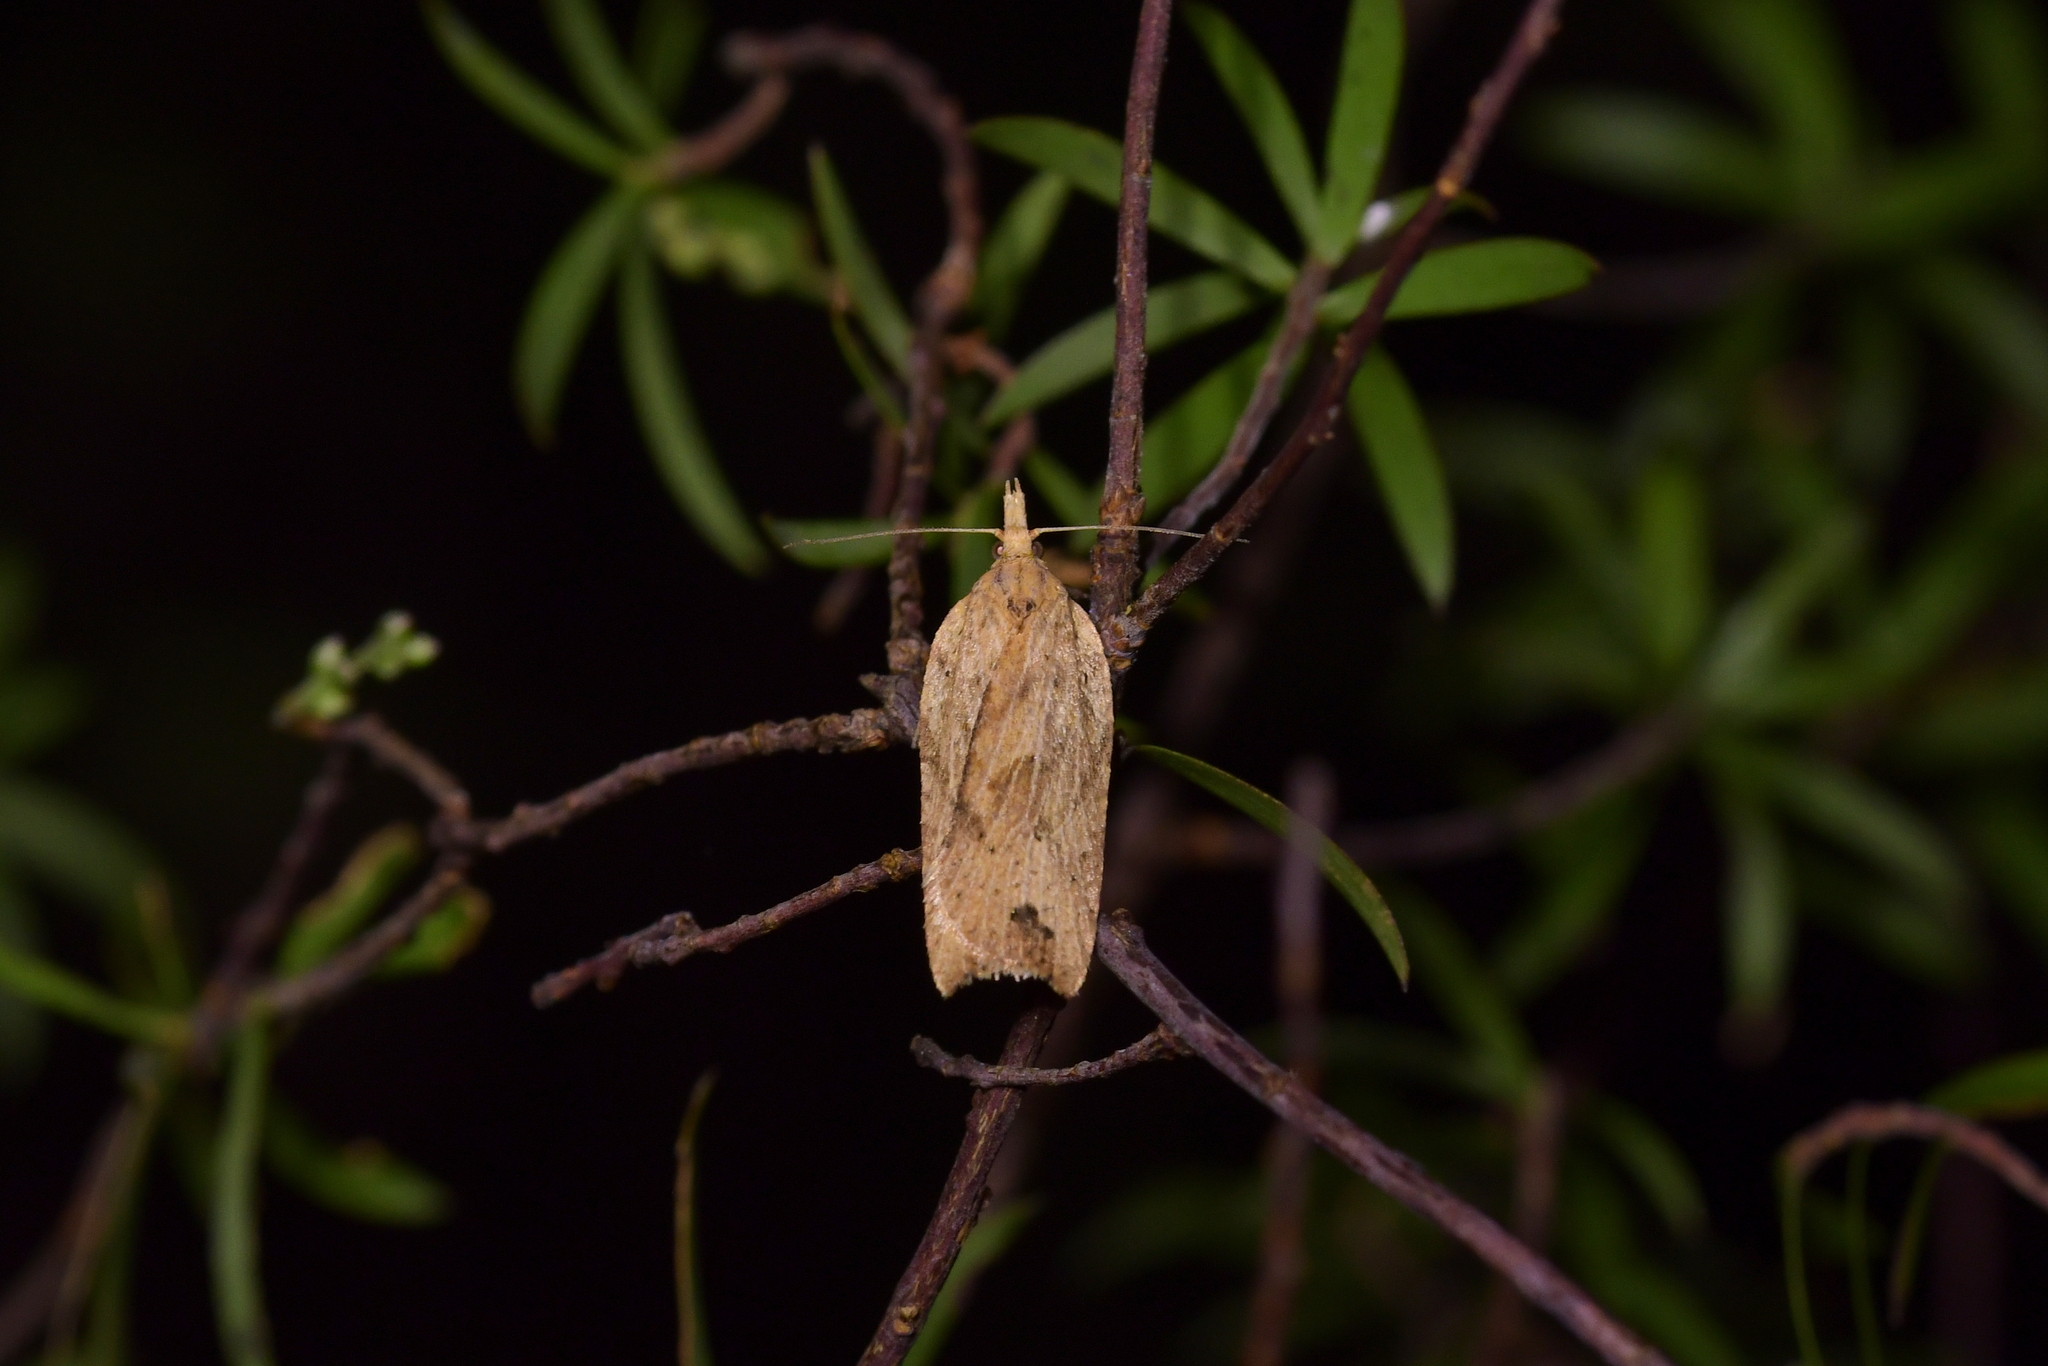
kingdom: Animalia
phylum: Arthropoda
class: Insecta
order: Lepidoptera
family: Tortricidae
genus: Planotortrix
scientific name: Planotortrix notophaea
